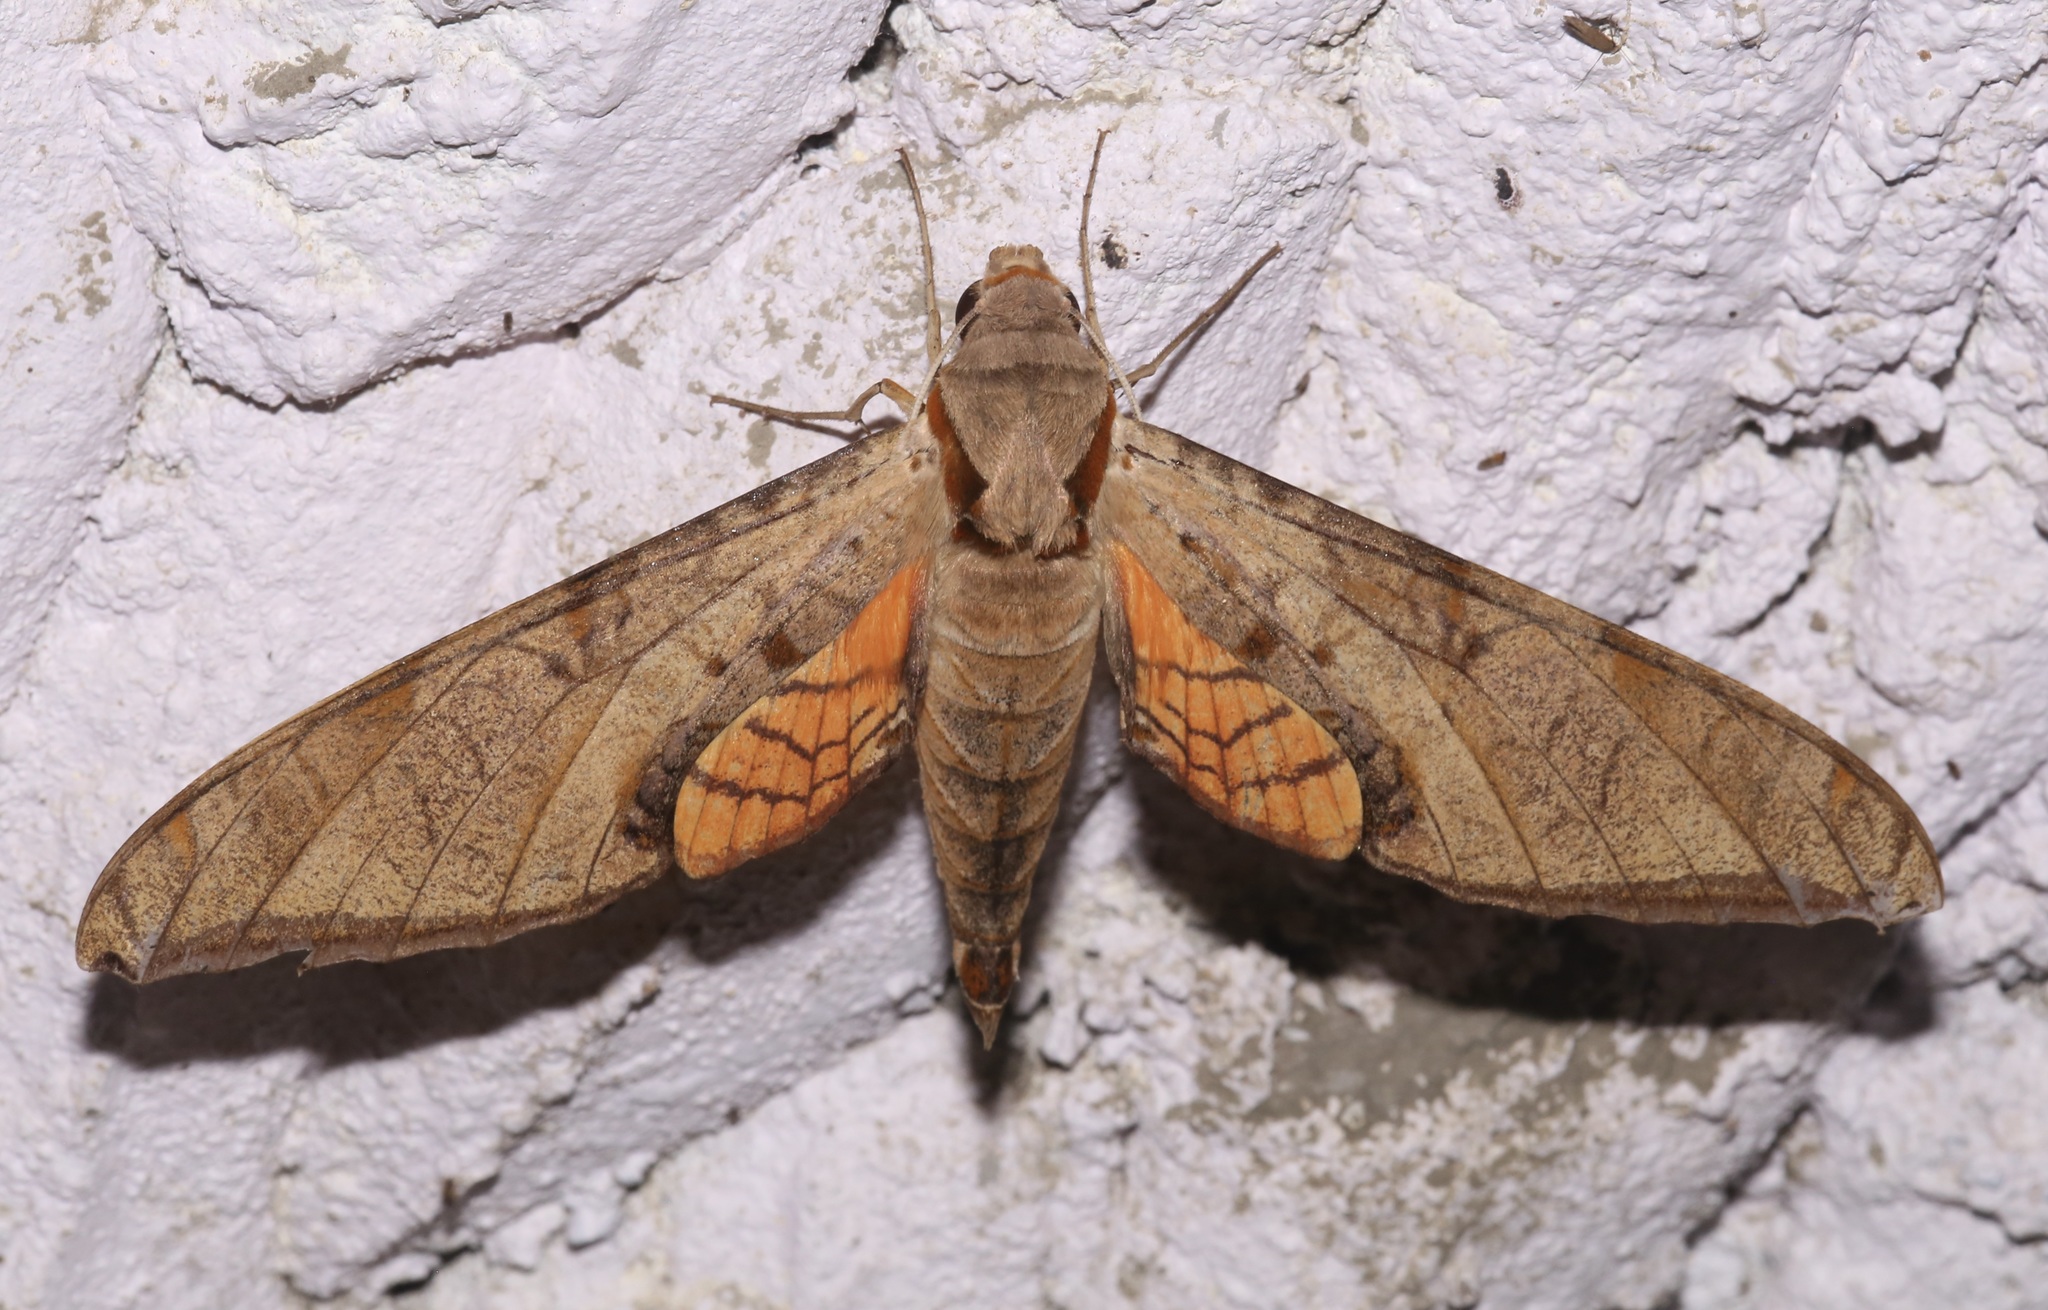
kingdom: Animalia
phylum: Arthropoda
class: Insecta
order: Lepidoptera
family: Sphingidae
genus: Protambulyx
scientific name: Protambulyx strigilis
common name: Streaked sphinx
